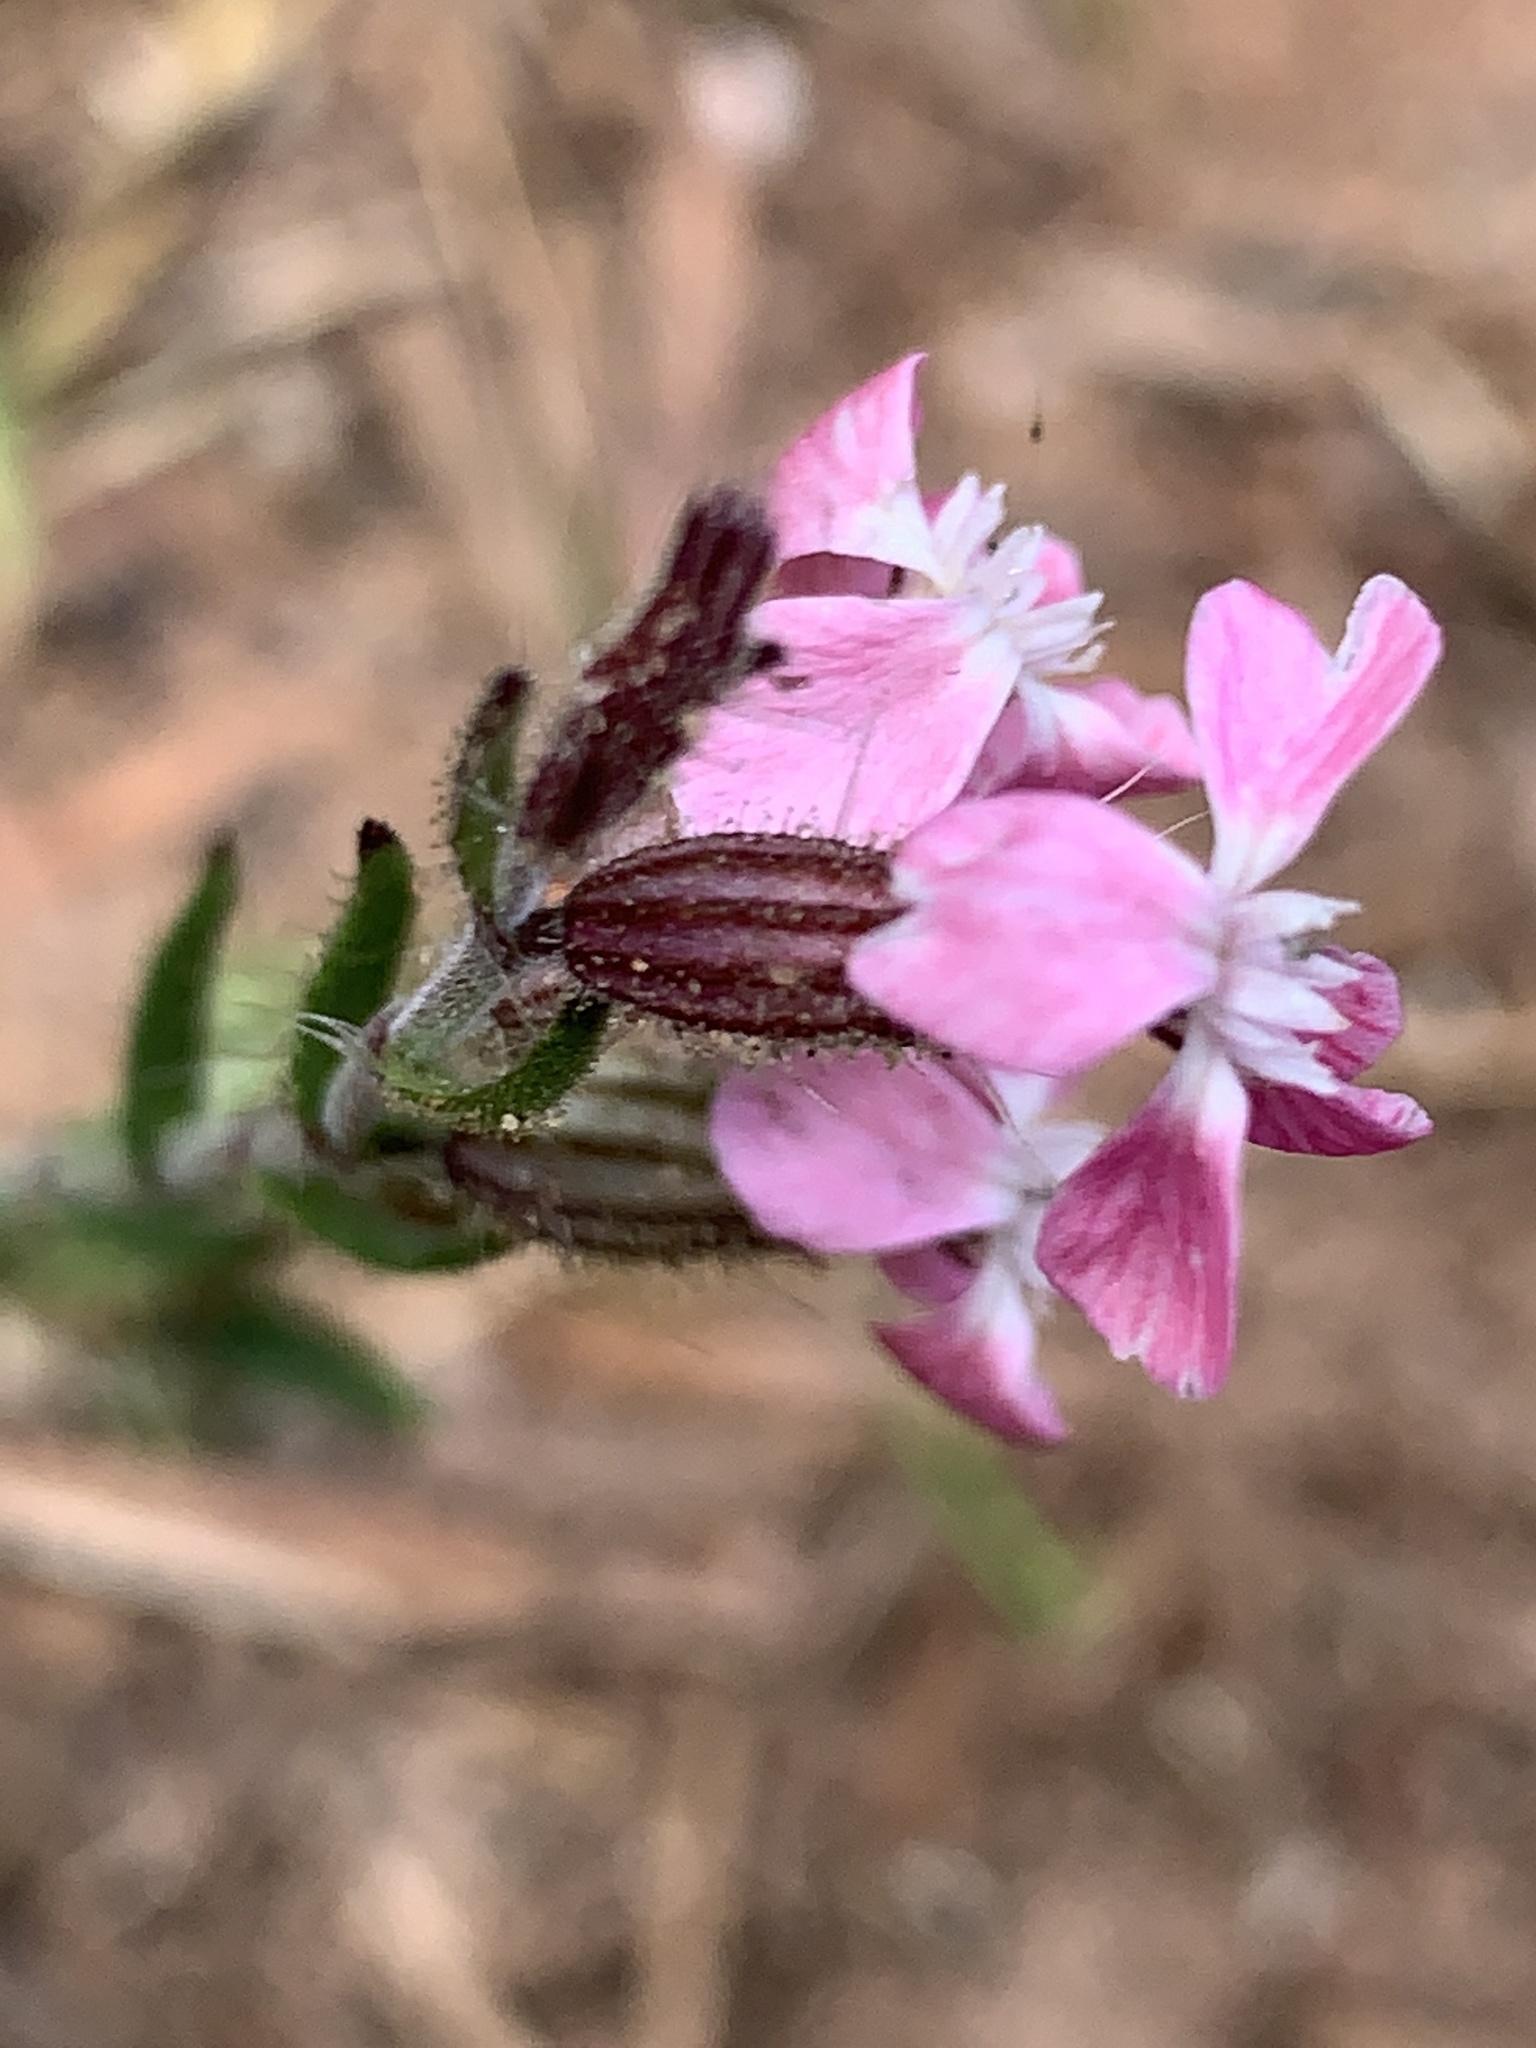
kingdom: Plantae
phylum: Tracheophyta
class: Magnoliopsida
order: Caryophyllales
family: Caryophyllaceae
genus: Silene
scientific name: Silene gallica
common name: Small-flowered catchfly
